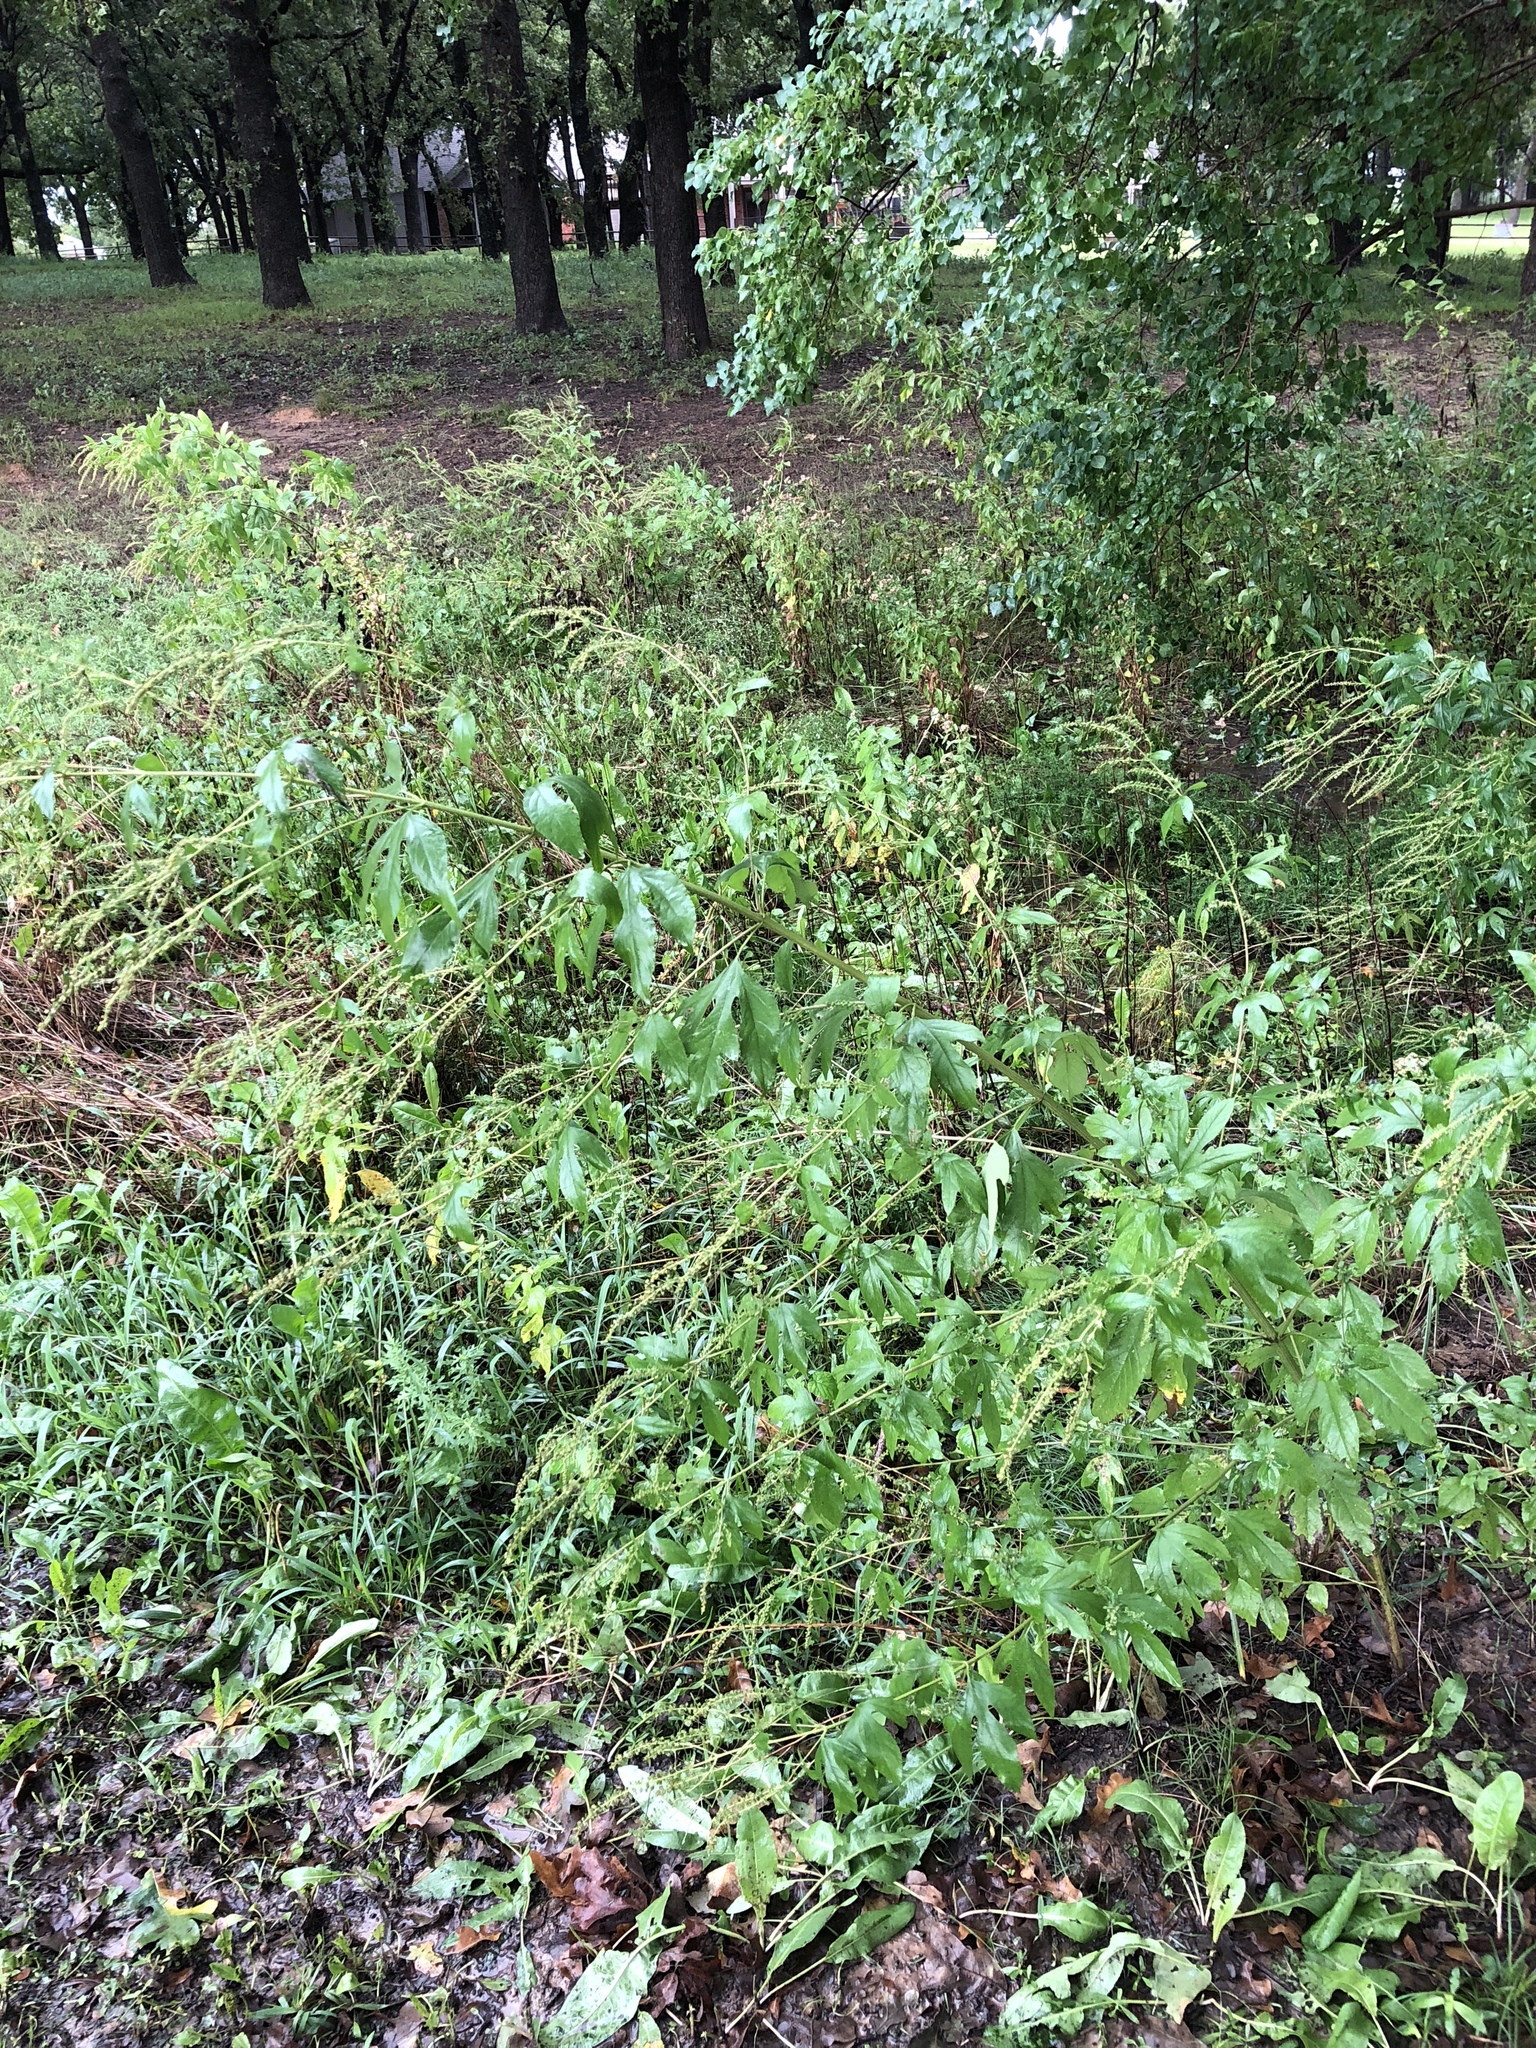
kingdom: Plantae
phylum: Tracheophyta
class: Magnoliopsida
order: Asterales
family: Asteraceae
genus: Ambrosia
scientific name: Ambrosia trifida
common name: Giant ragweed
